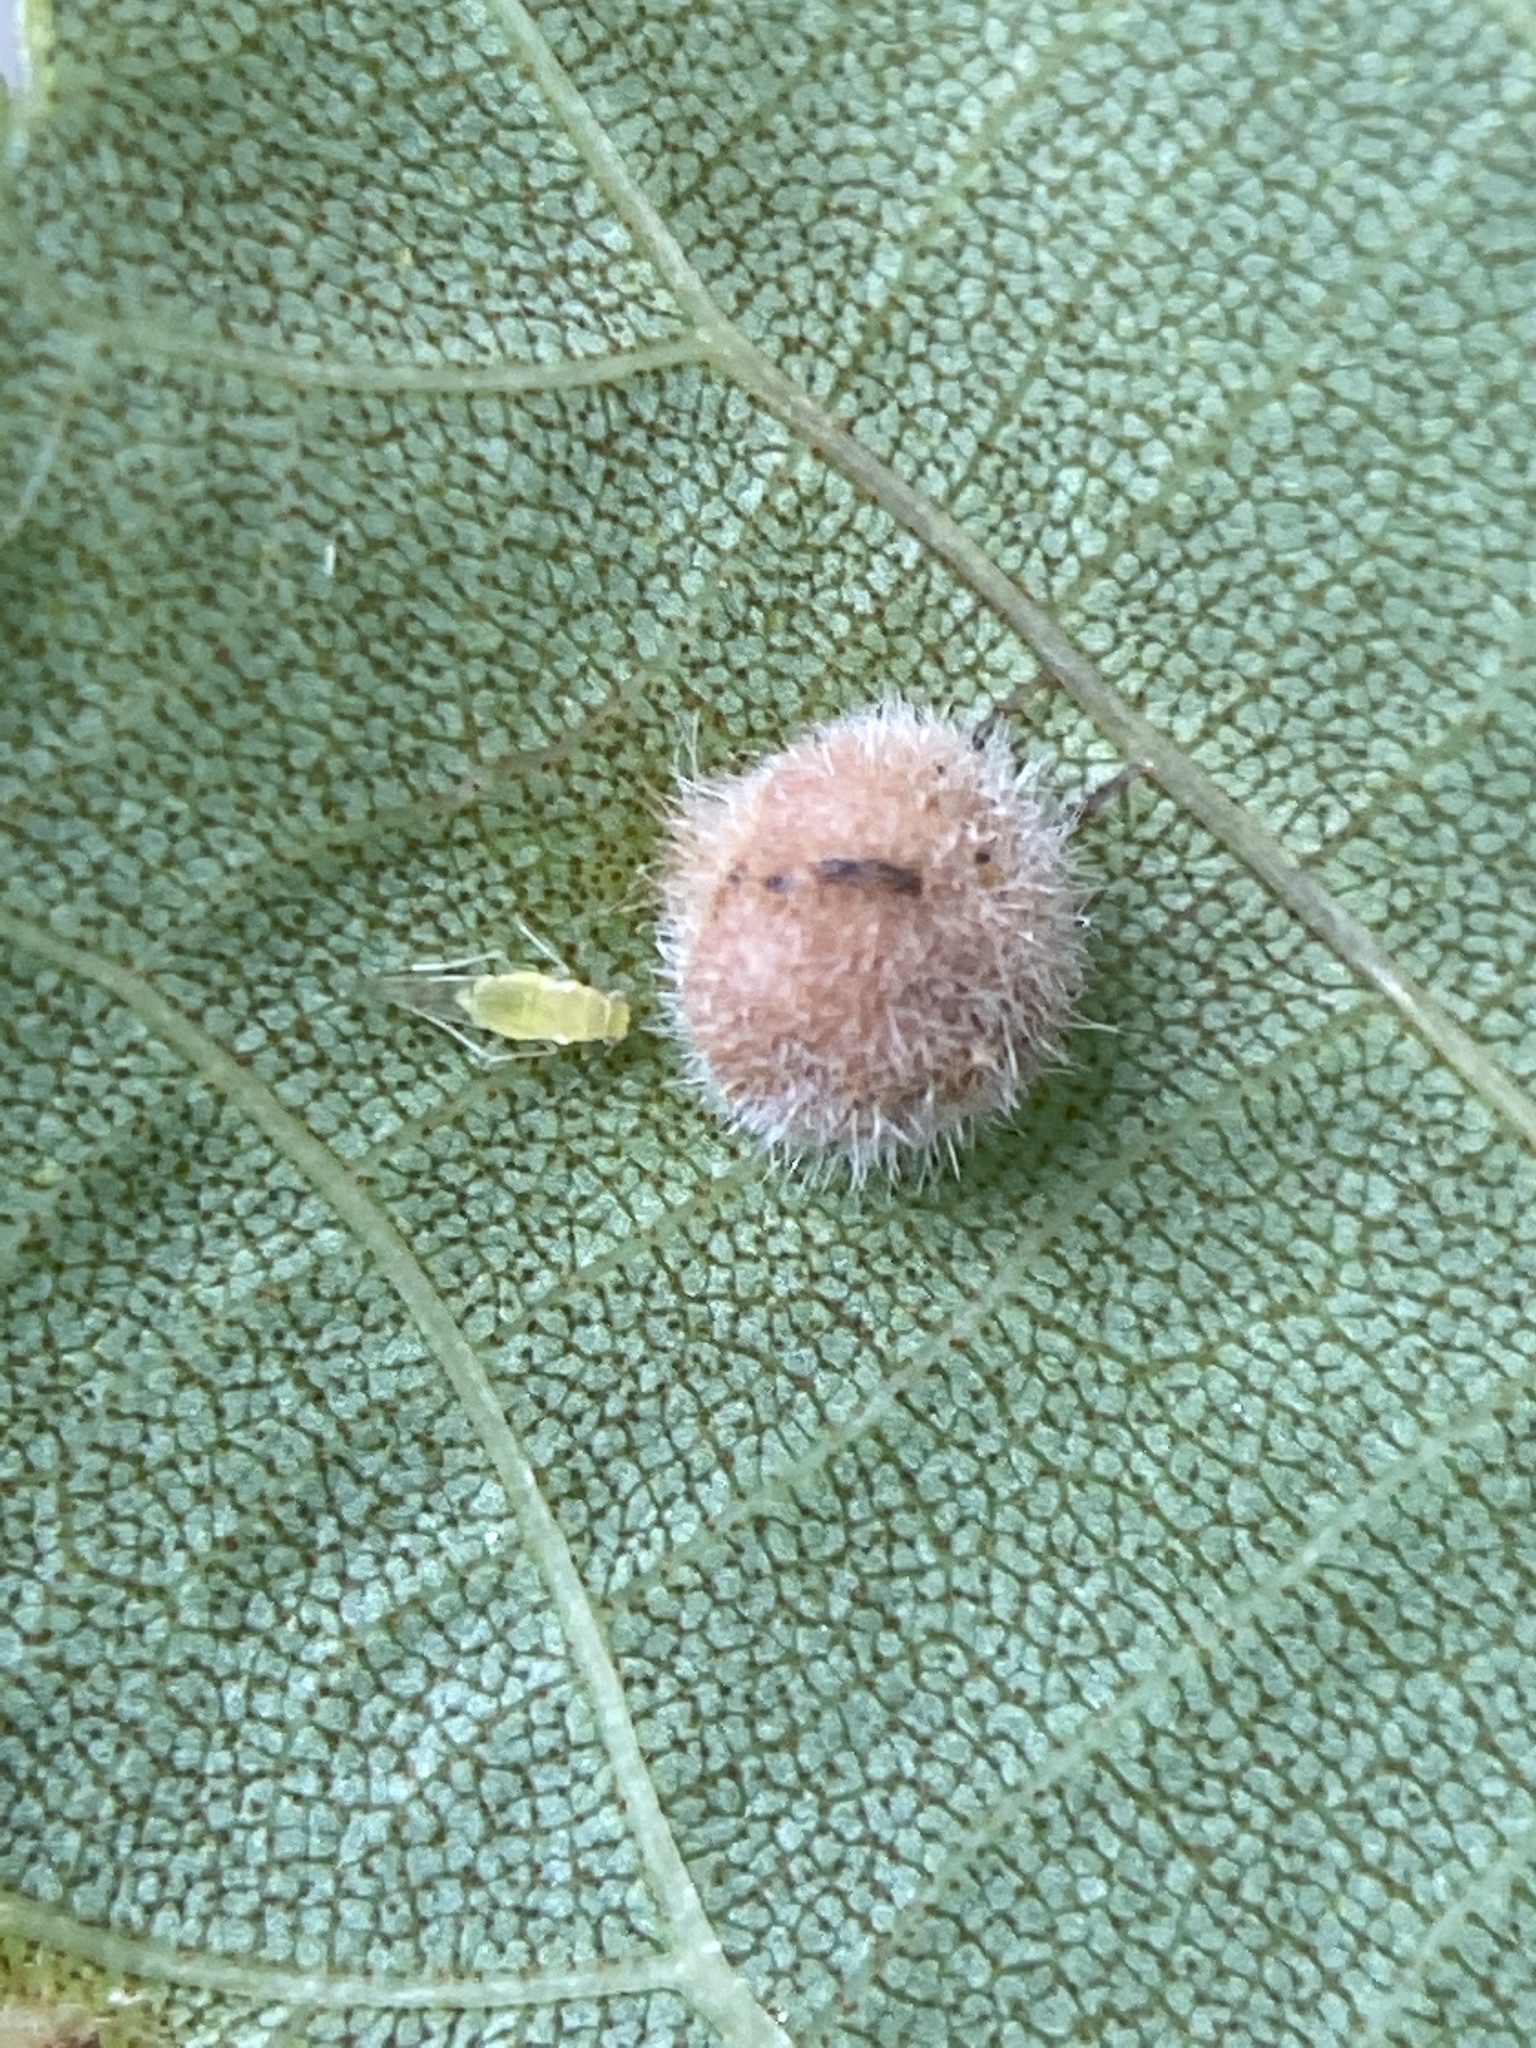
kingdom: Animalia
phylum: Arthropoda
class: Insecta
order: Diptera
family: Cecidomyiidae
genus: Caryomyia
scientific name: Caryomyia purpurea
